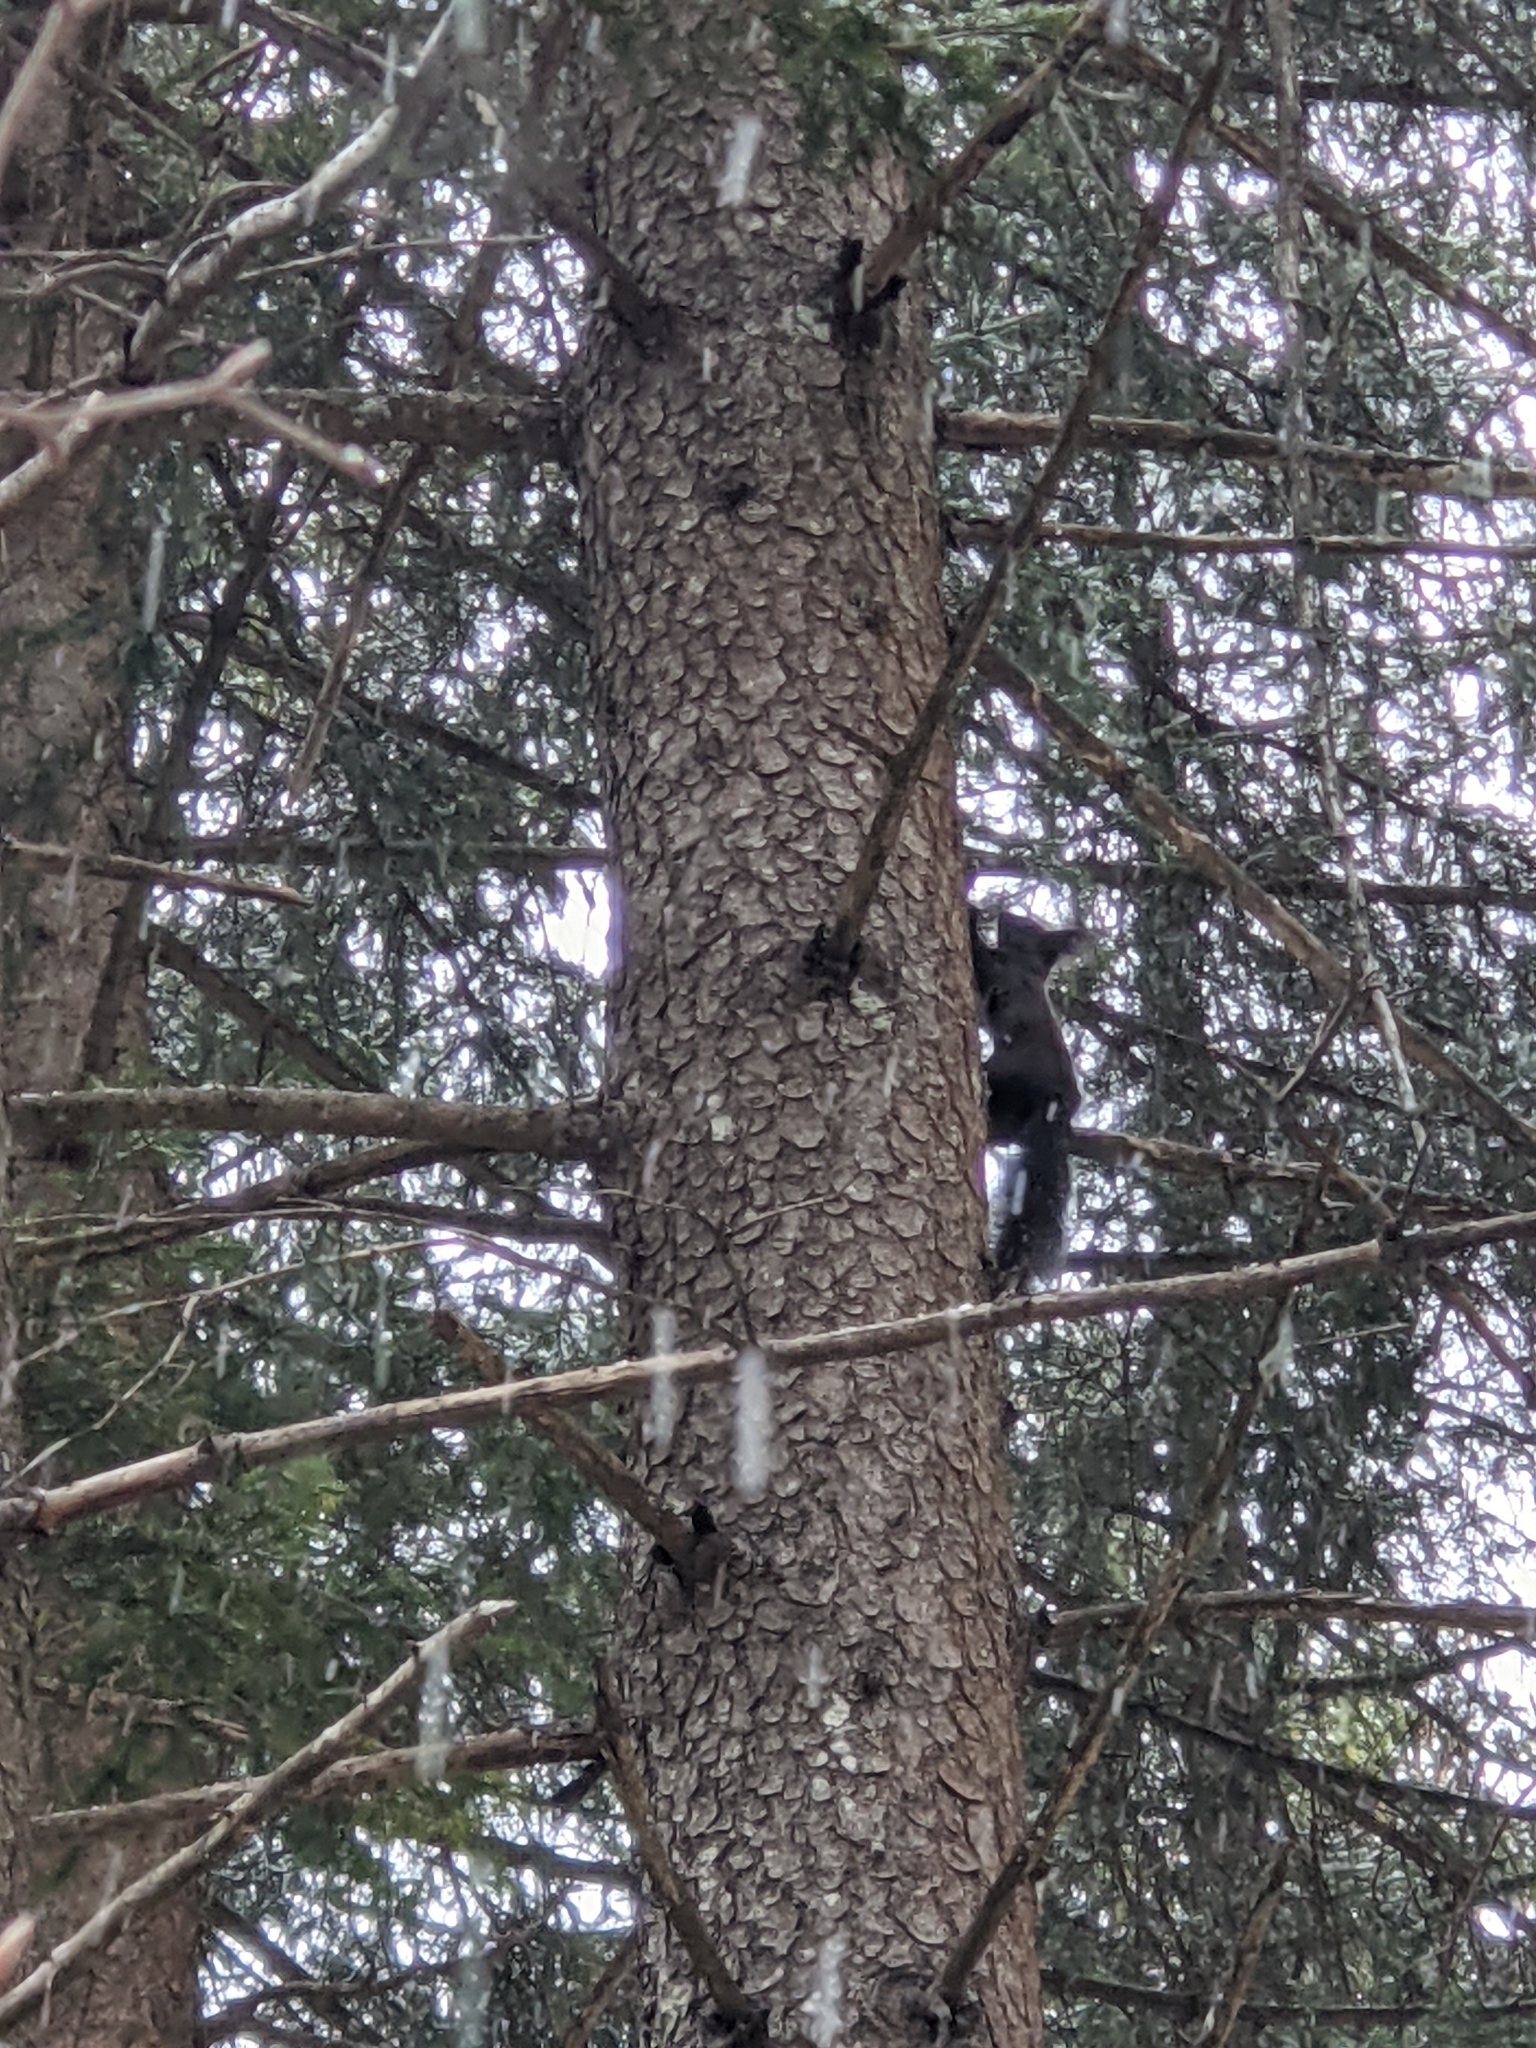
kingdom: Animalia
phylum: Chordata
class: Mammalia
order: Rodentia
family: Sciuridae
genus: Sciurus
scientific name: Sciurus vulgaris
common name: Eurasian red squirrel
